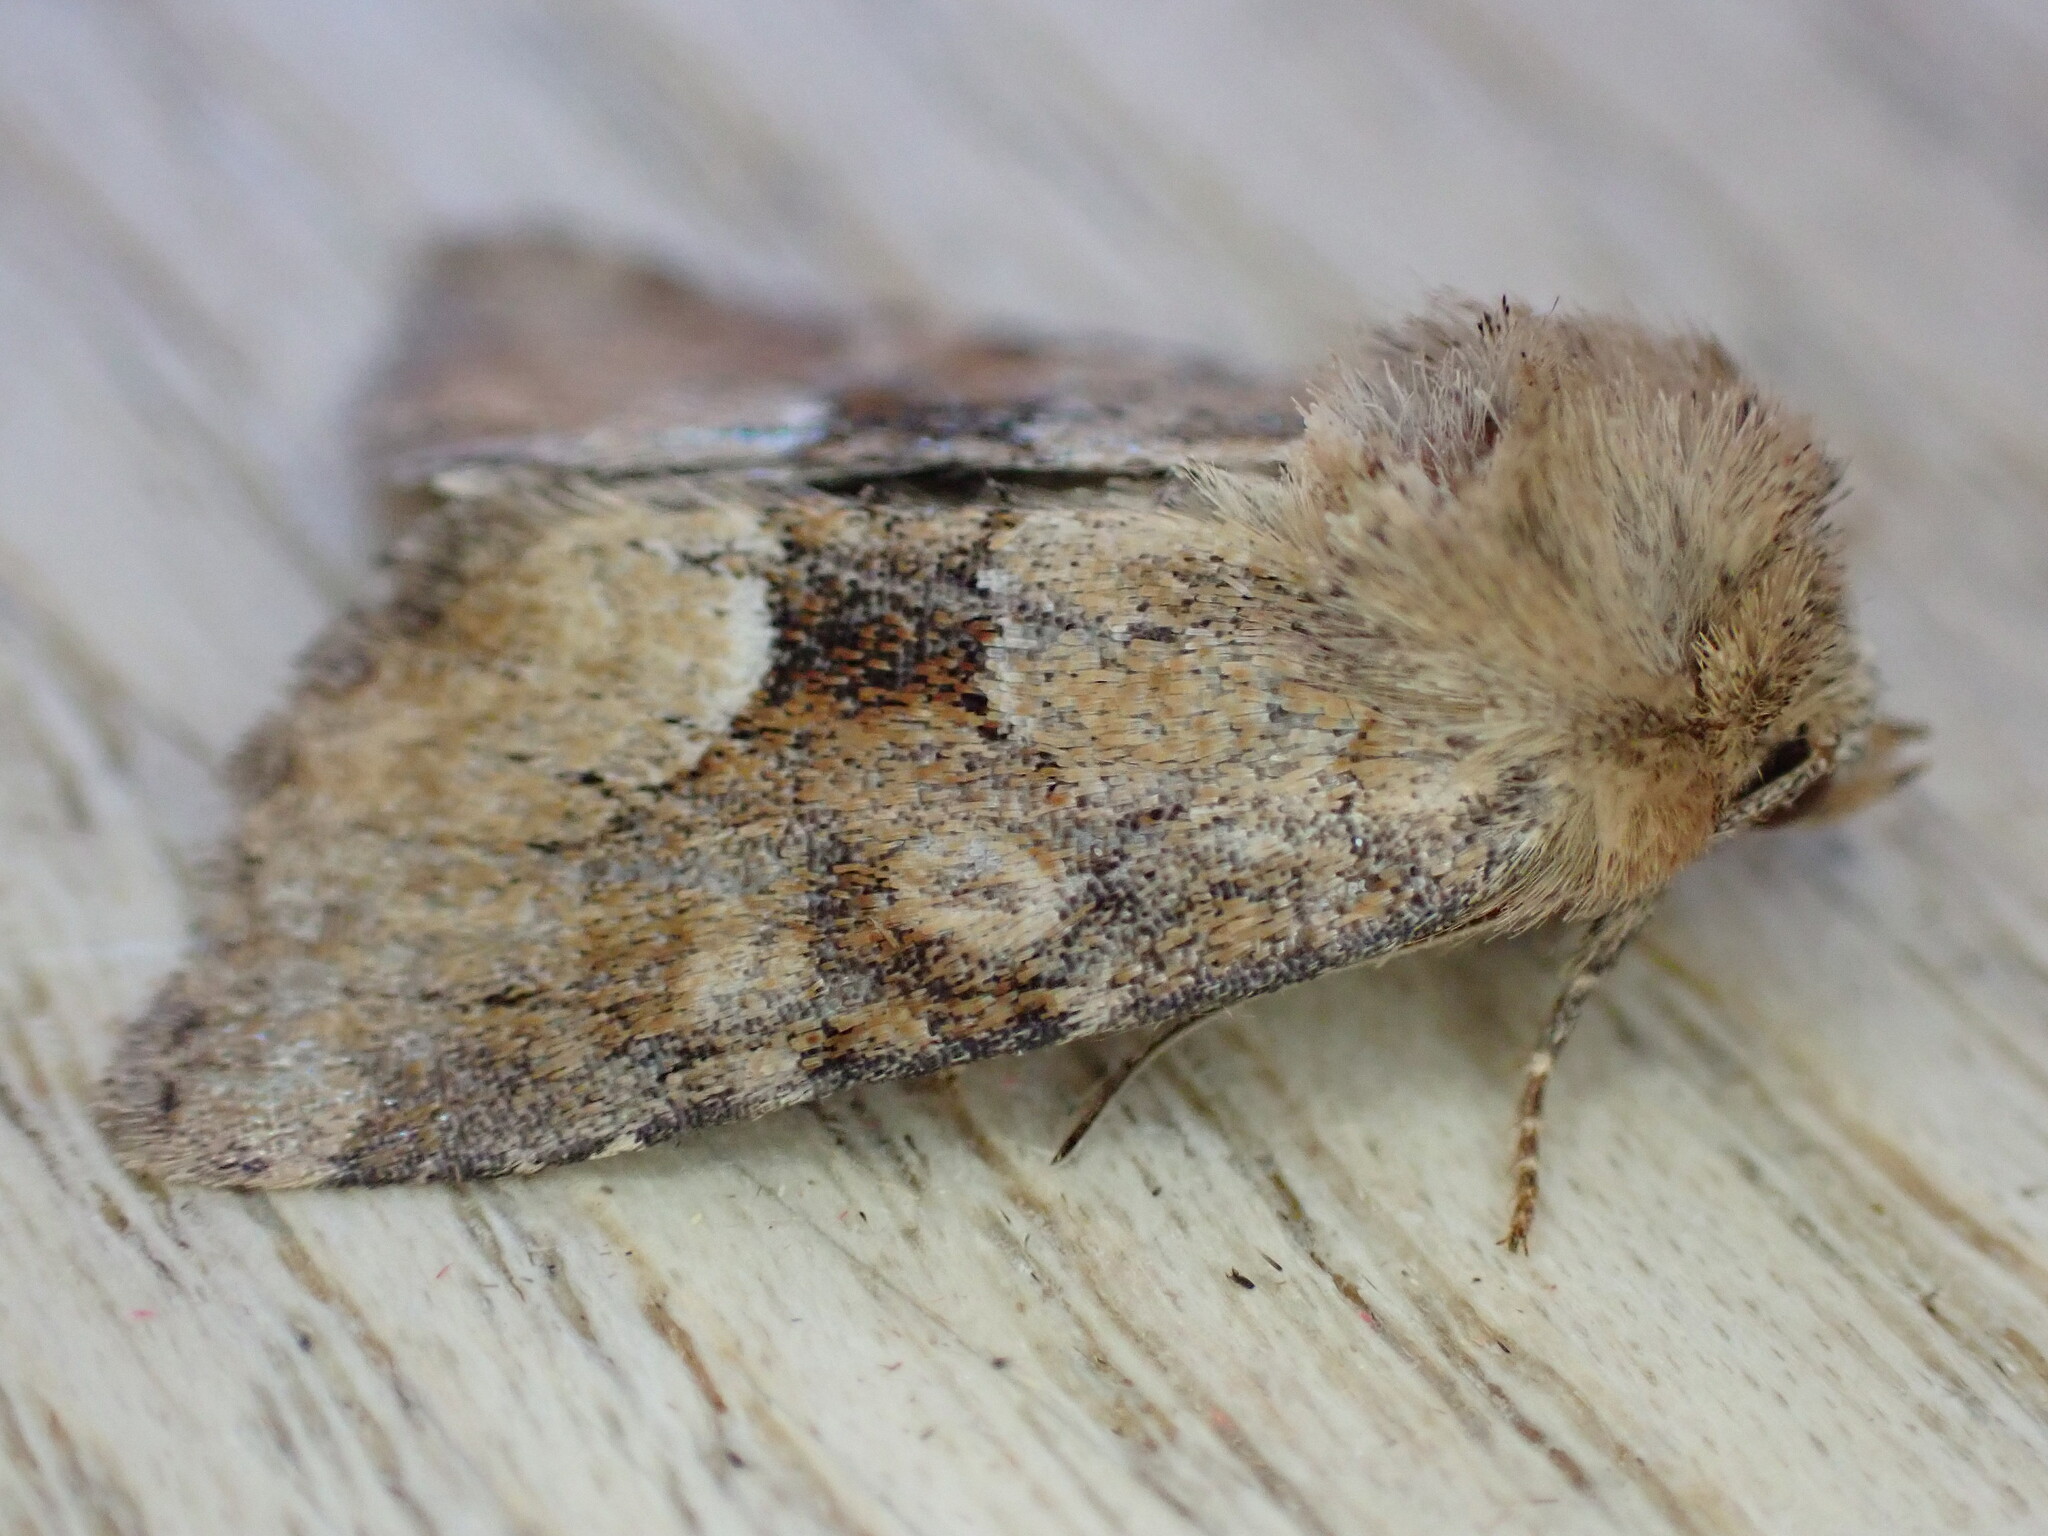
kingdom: Animalia
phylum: Arthropoda
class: Insecta
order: Lepidoptera
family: Noctuidae
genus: Oligia
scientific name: Oligia fasciuncula
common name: Middle-barred minor
